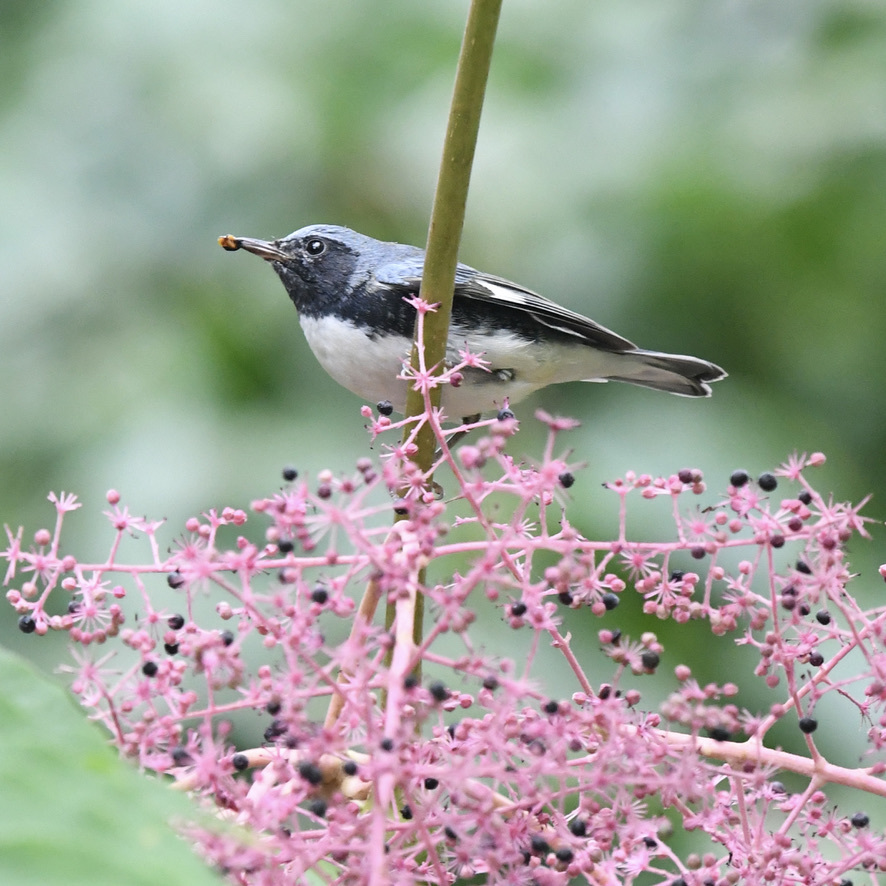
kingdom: Animalia
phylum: Chordata
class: Aves
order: Passeriformes
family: Parulidae
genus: Setophaga
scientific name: Setophaga caerulescens
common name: Black-throated blue warbler
